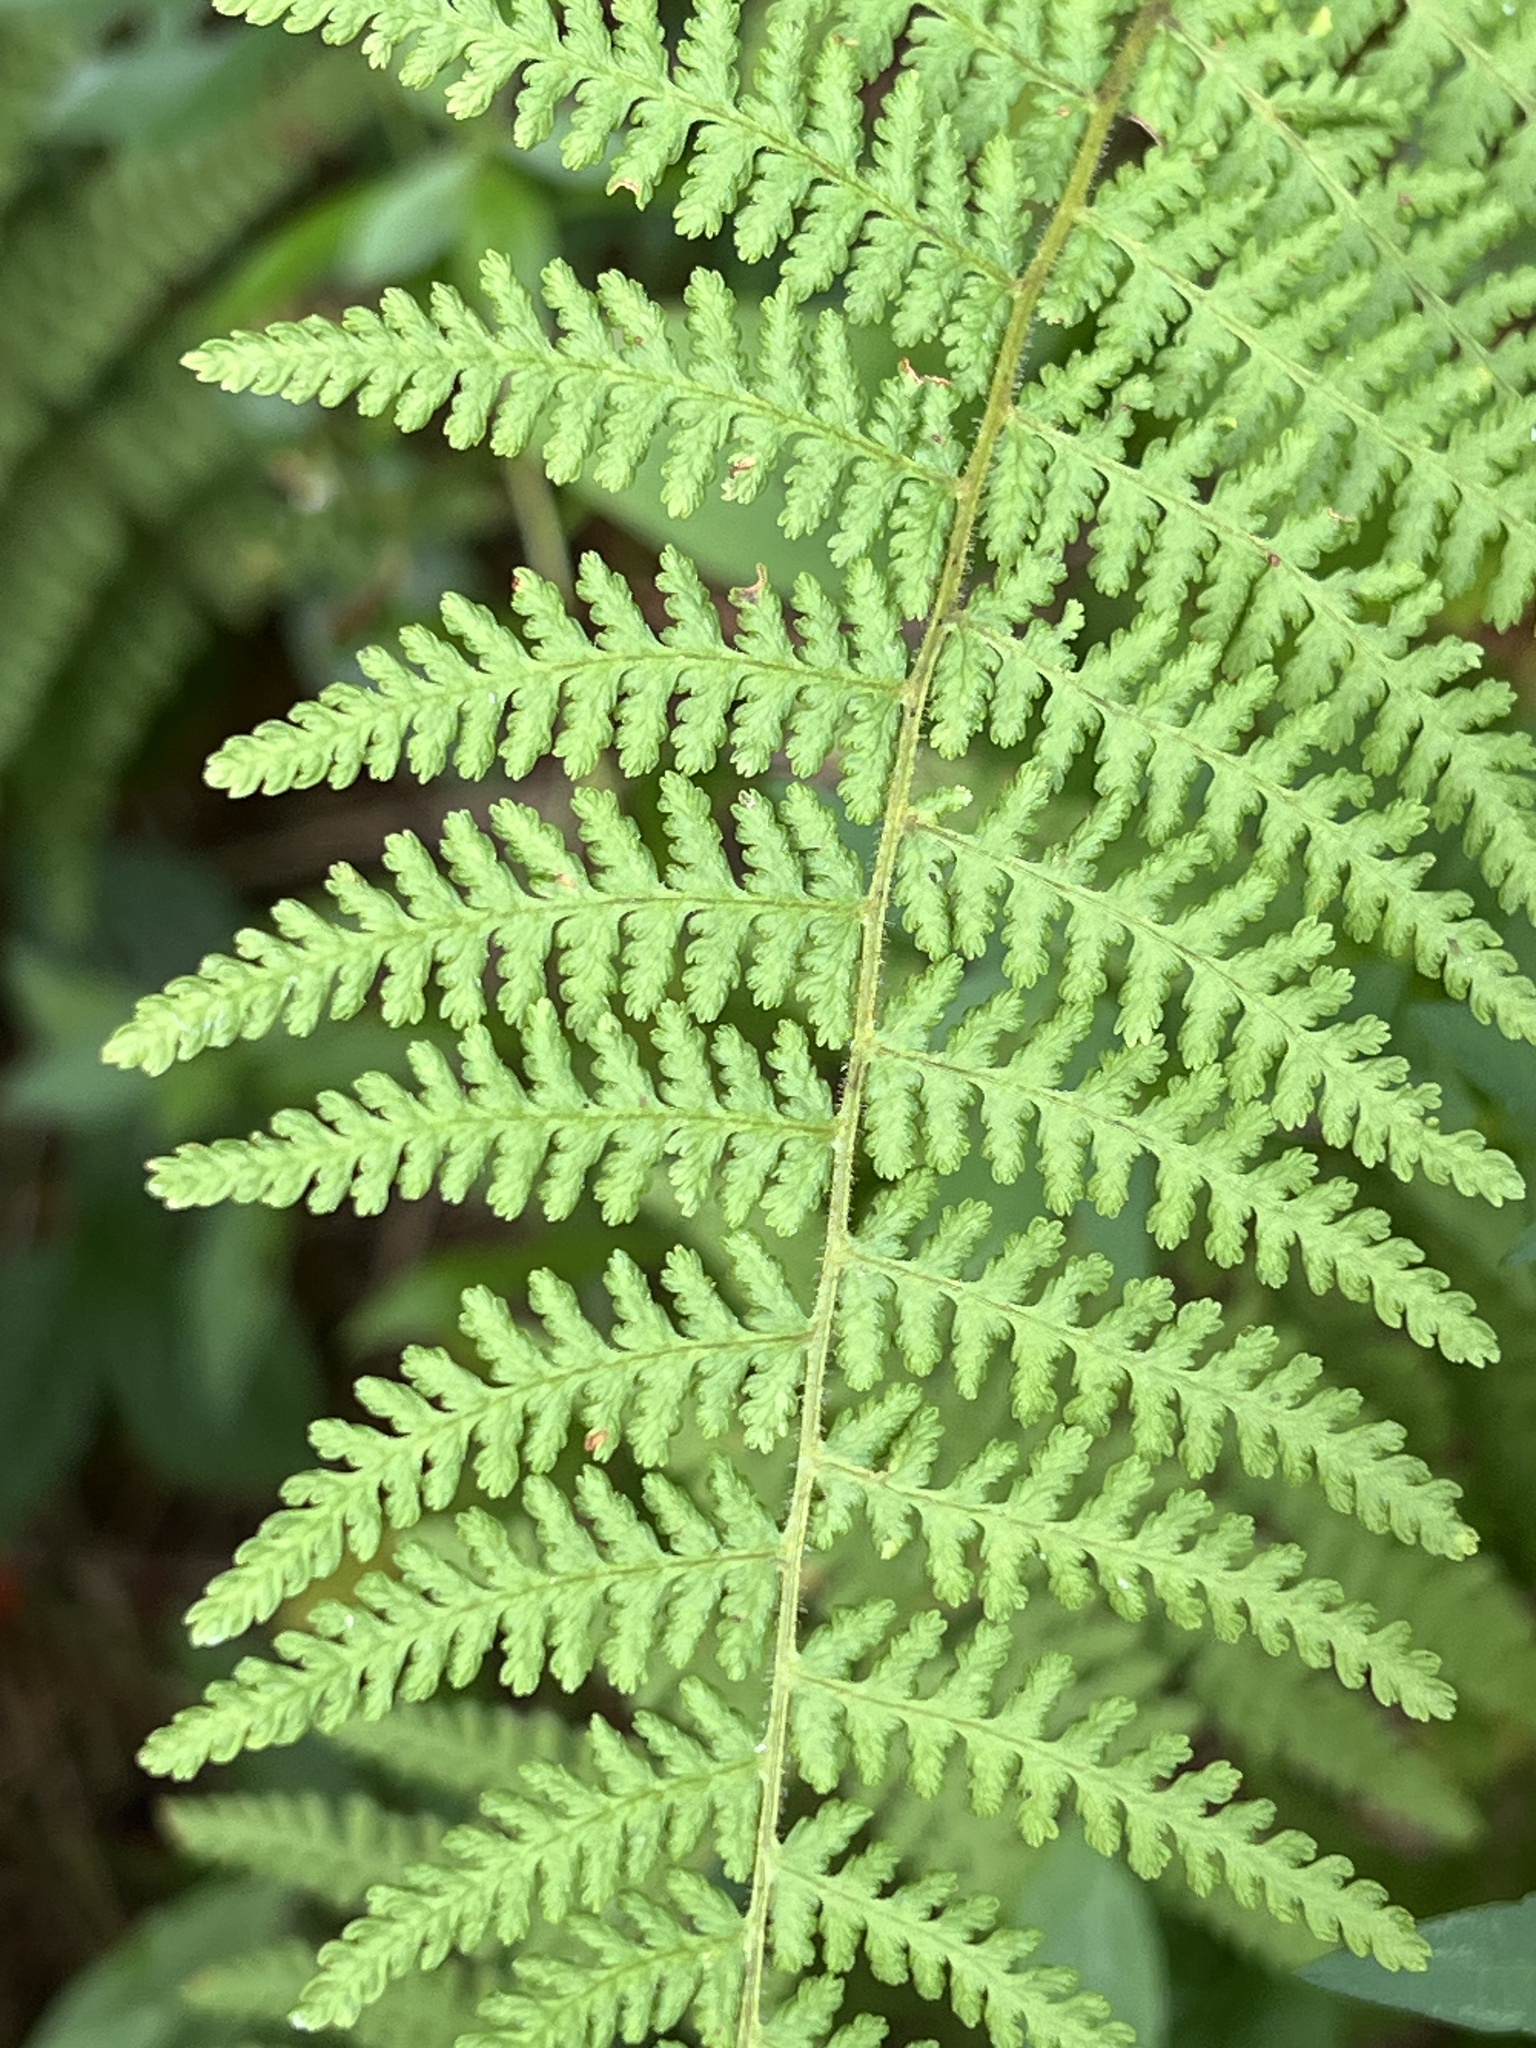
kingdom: Plantae
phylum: Tracheophyta
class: Polypodiopsida
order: Polypodiales
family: Dennstaedtiaceae
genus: Sitobolium
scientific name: Sitobolium punctilobum
